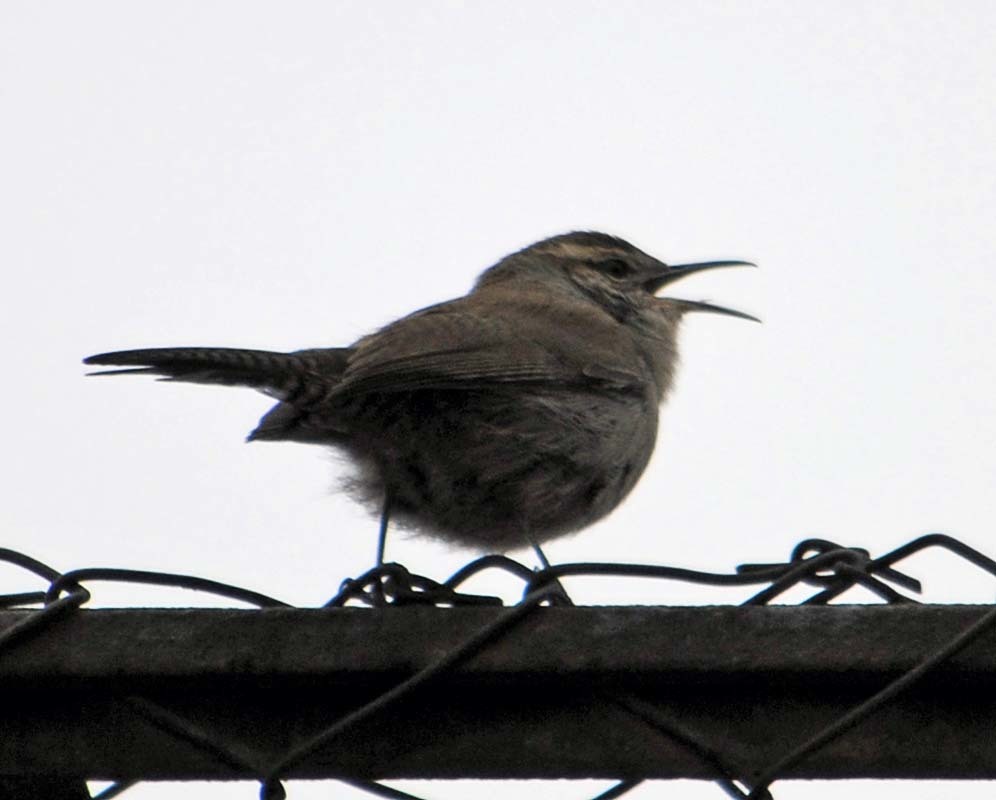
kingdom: Animalia
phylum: Chordata
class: Aves
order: Passeriformes
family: Troglodytidae
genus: Thryomanes
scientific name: Thryomanes bewickii
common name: Bewick's wren
